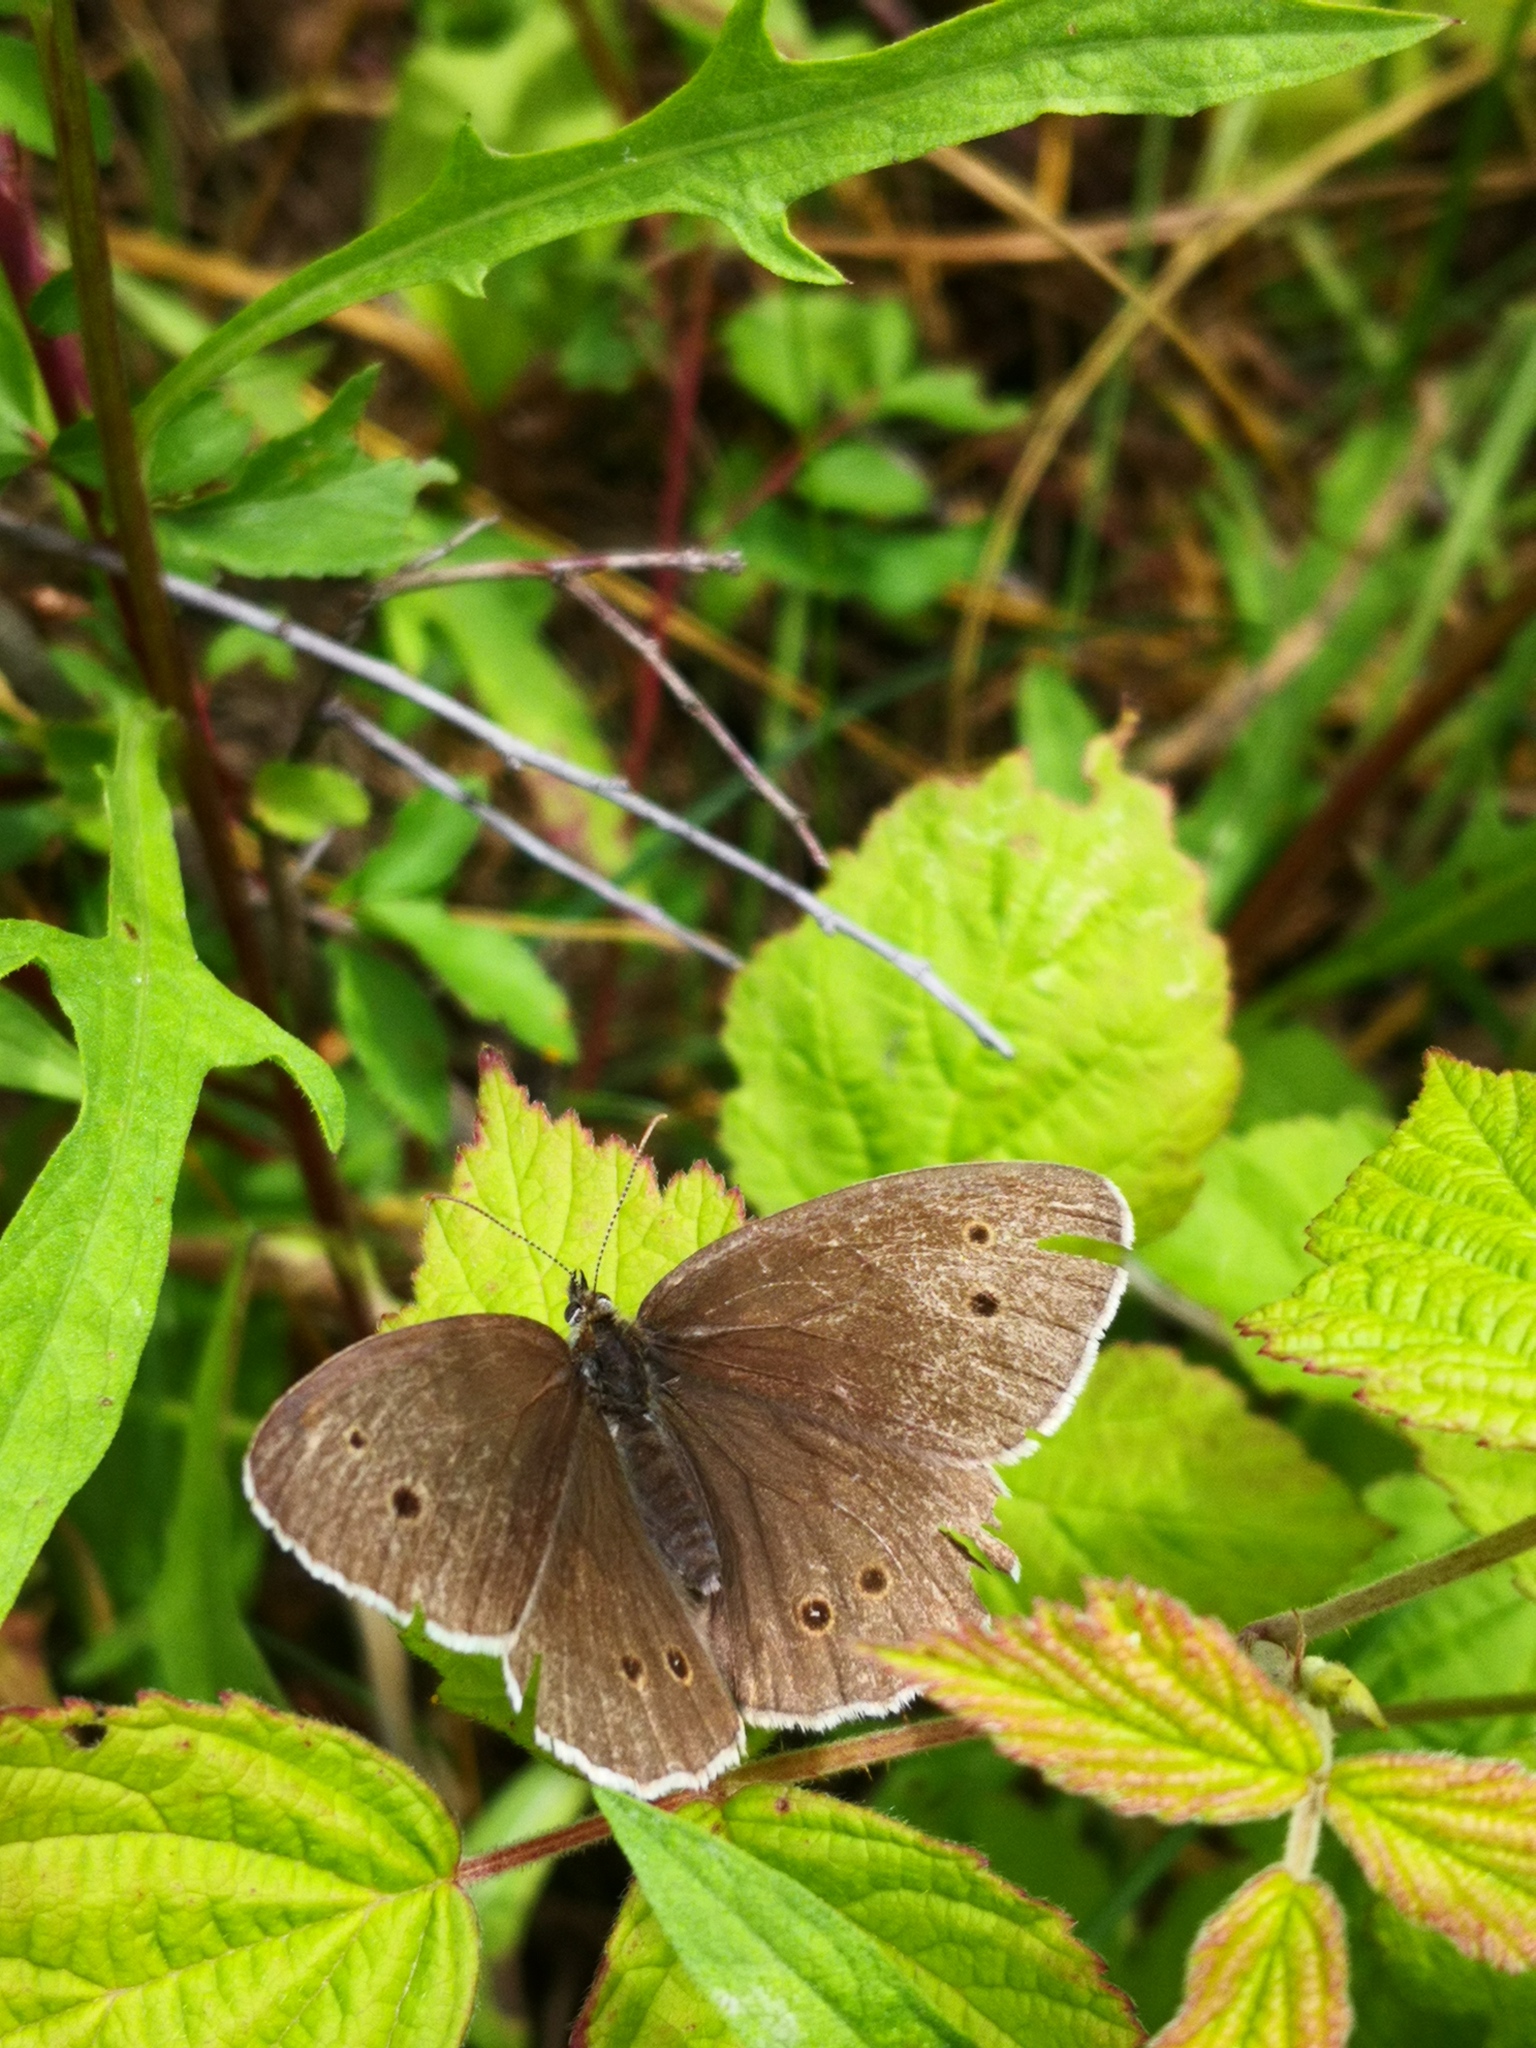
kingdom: Animalia
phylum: Arthropoda
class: Insecta
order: Lepidoptera
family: Nymphalidae
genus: Aphantopus
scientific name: Aphantopus hyperantus
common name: Ringlet
